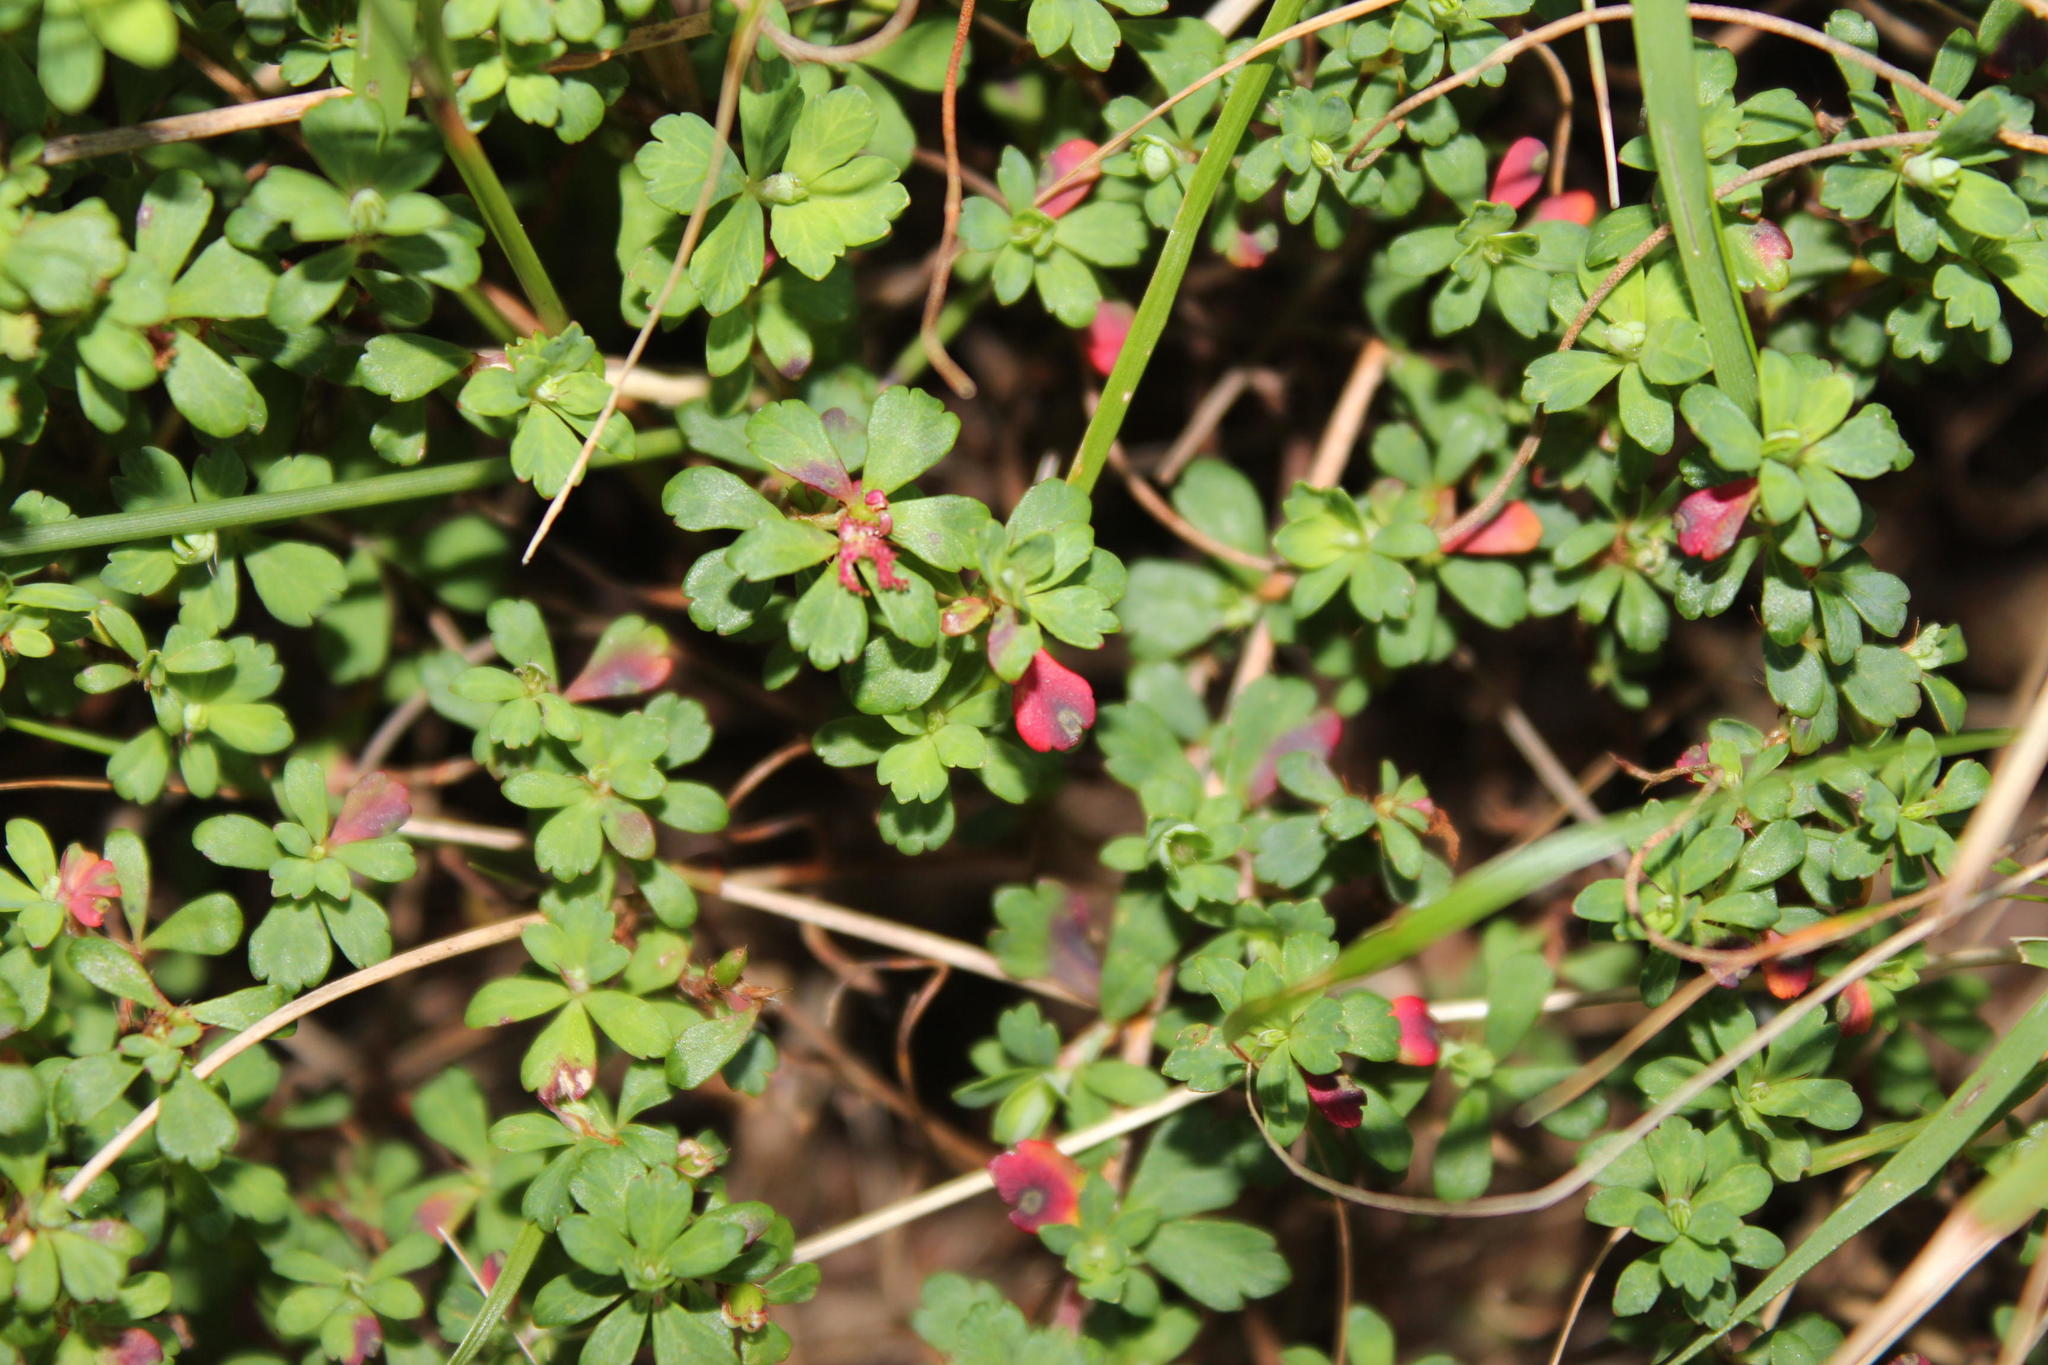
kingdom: Plantae
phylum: Tracheophyta
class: Magnoliopsida
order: Rosales
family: Rosaceae
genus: Cliffortia
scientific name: Cliffortia dentata
